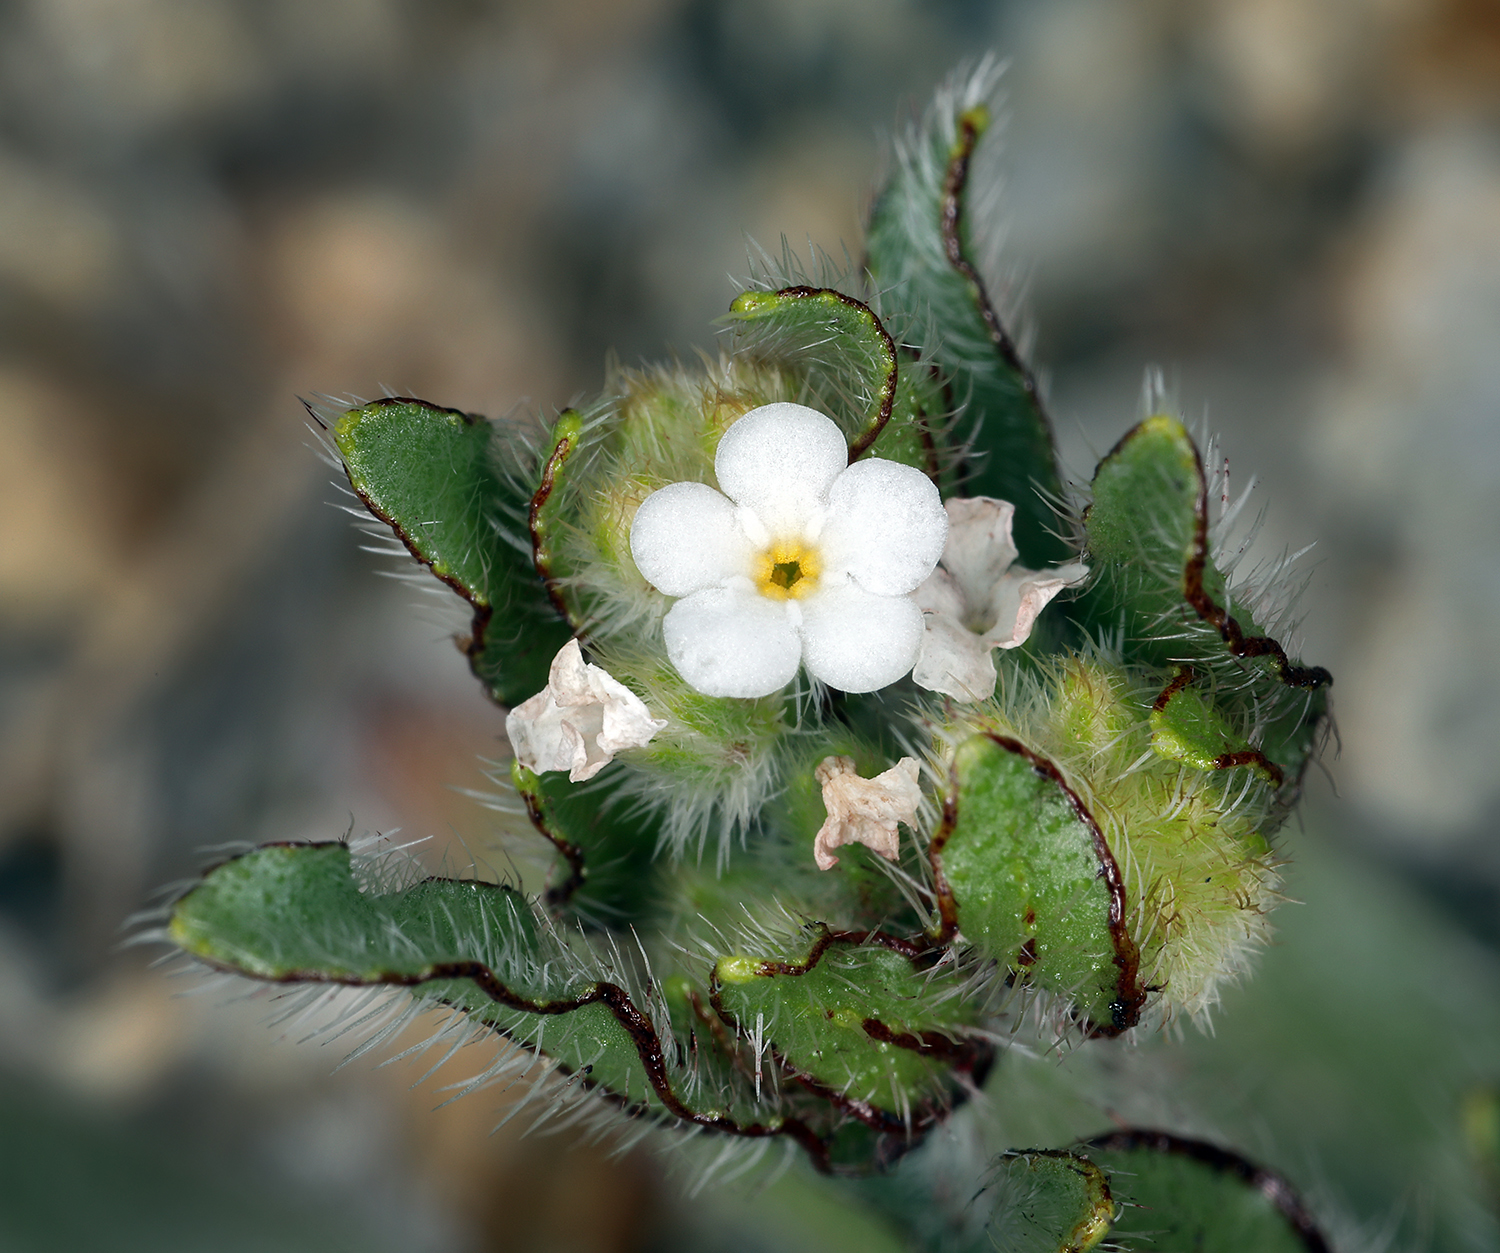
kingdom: Plantae
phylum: Tracheophyta
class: Magnoliopsida
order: Boraginales
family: Boraginaceae
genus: Plagiobothrys
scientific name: Plagiobothrys arizonicus
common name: Arizona popcorn-flower
